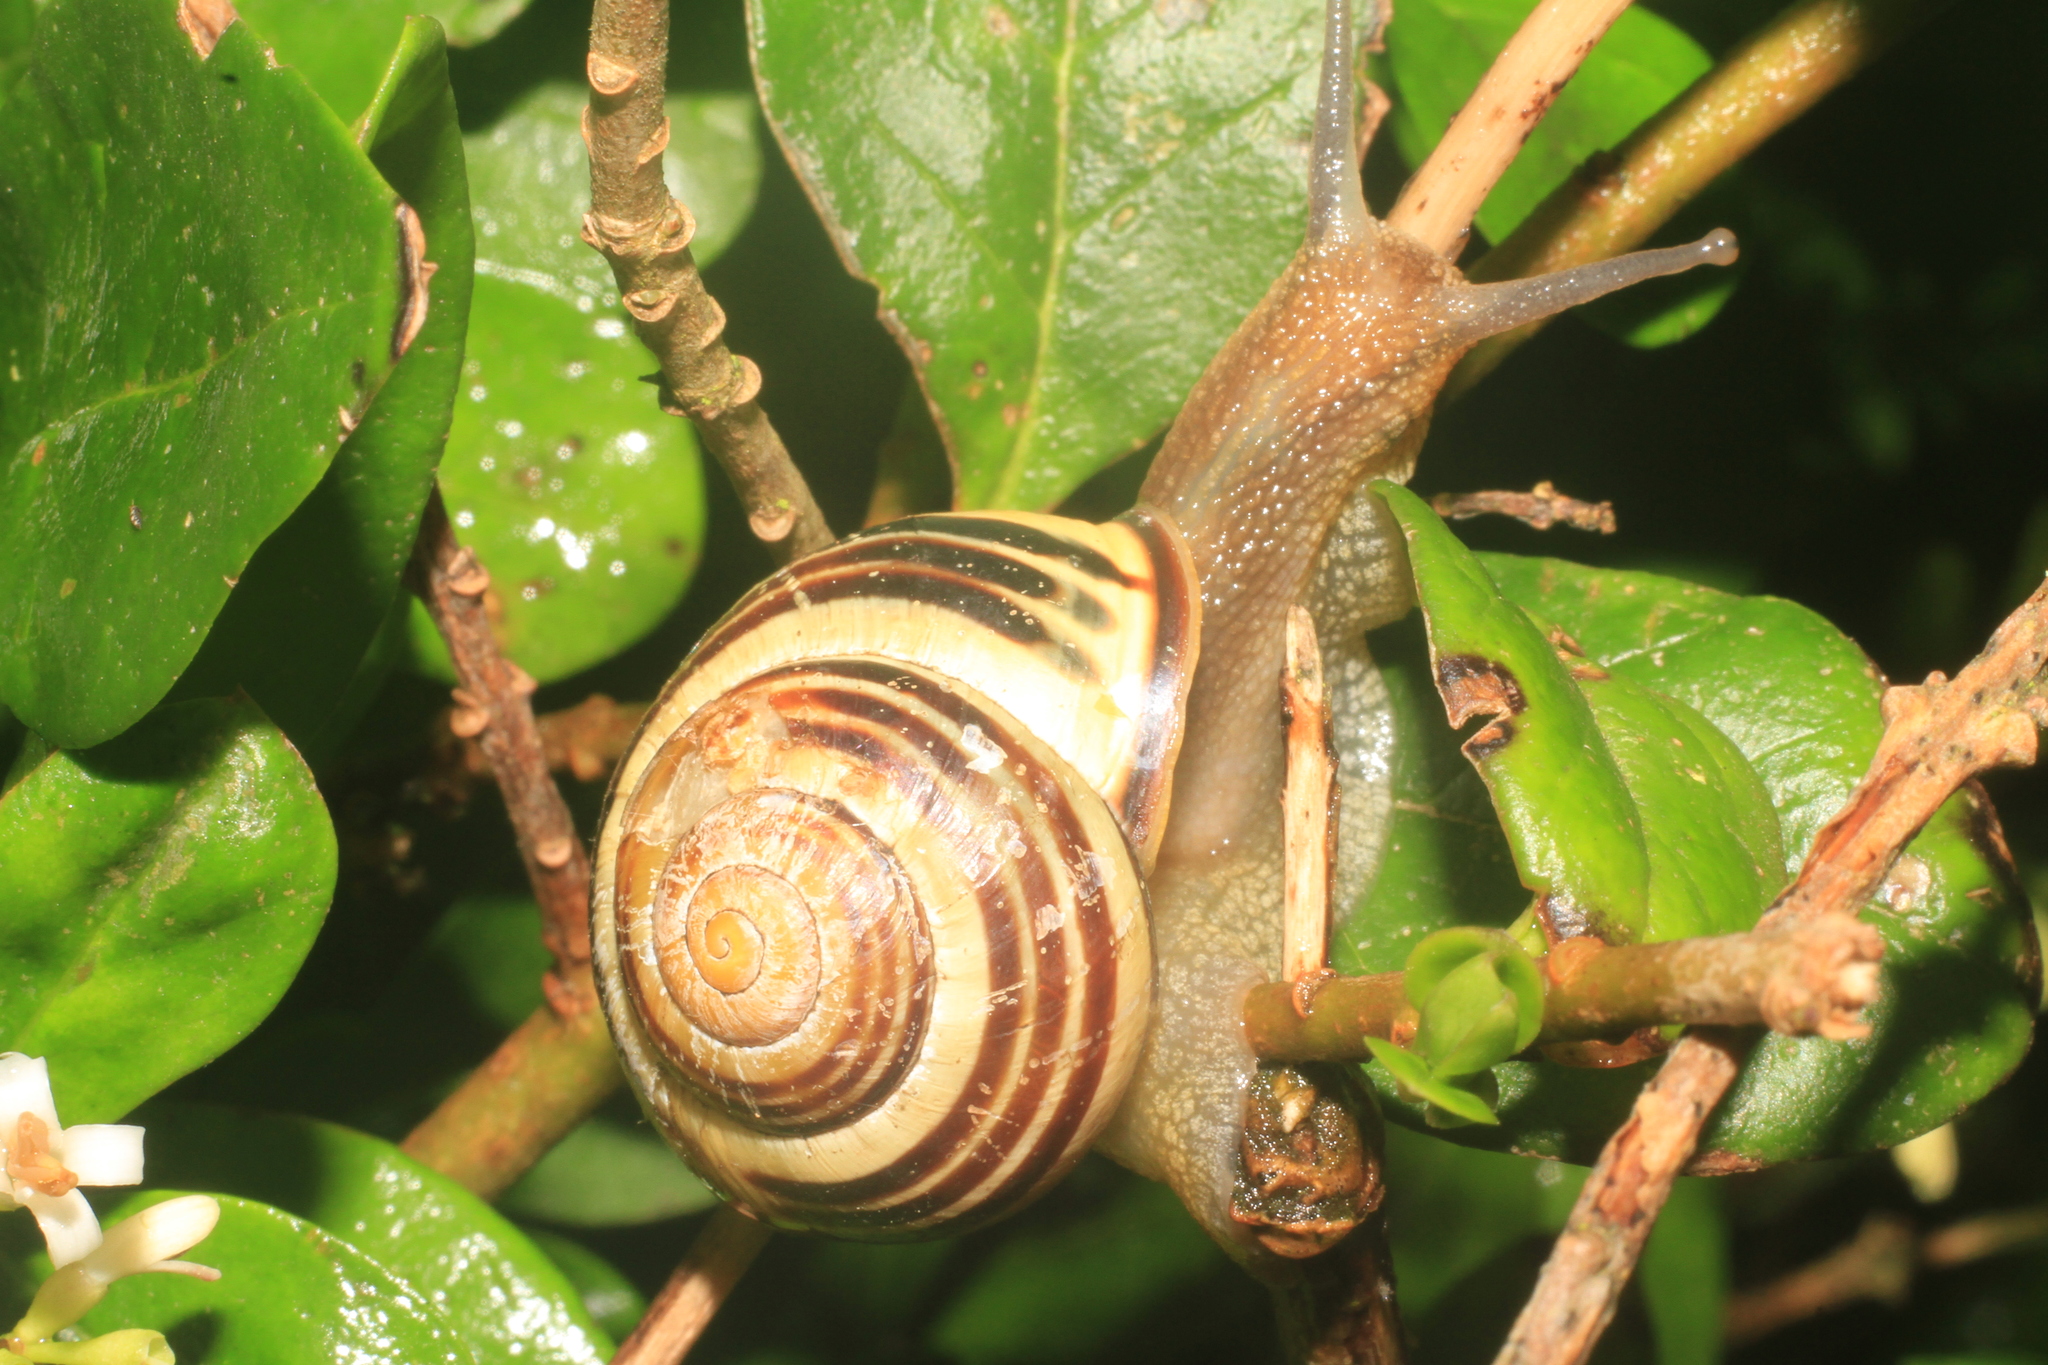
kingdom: Animalia
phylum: Mollusca
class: Gastropoda
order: Stylommatophora
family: Helicidae
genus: Cepaea
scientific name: Cepaea nemoralis
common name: Grovesnail
